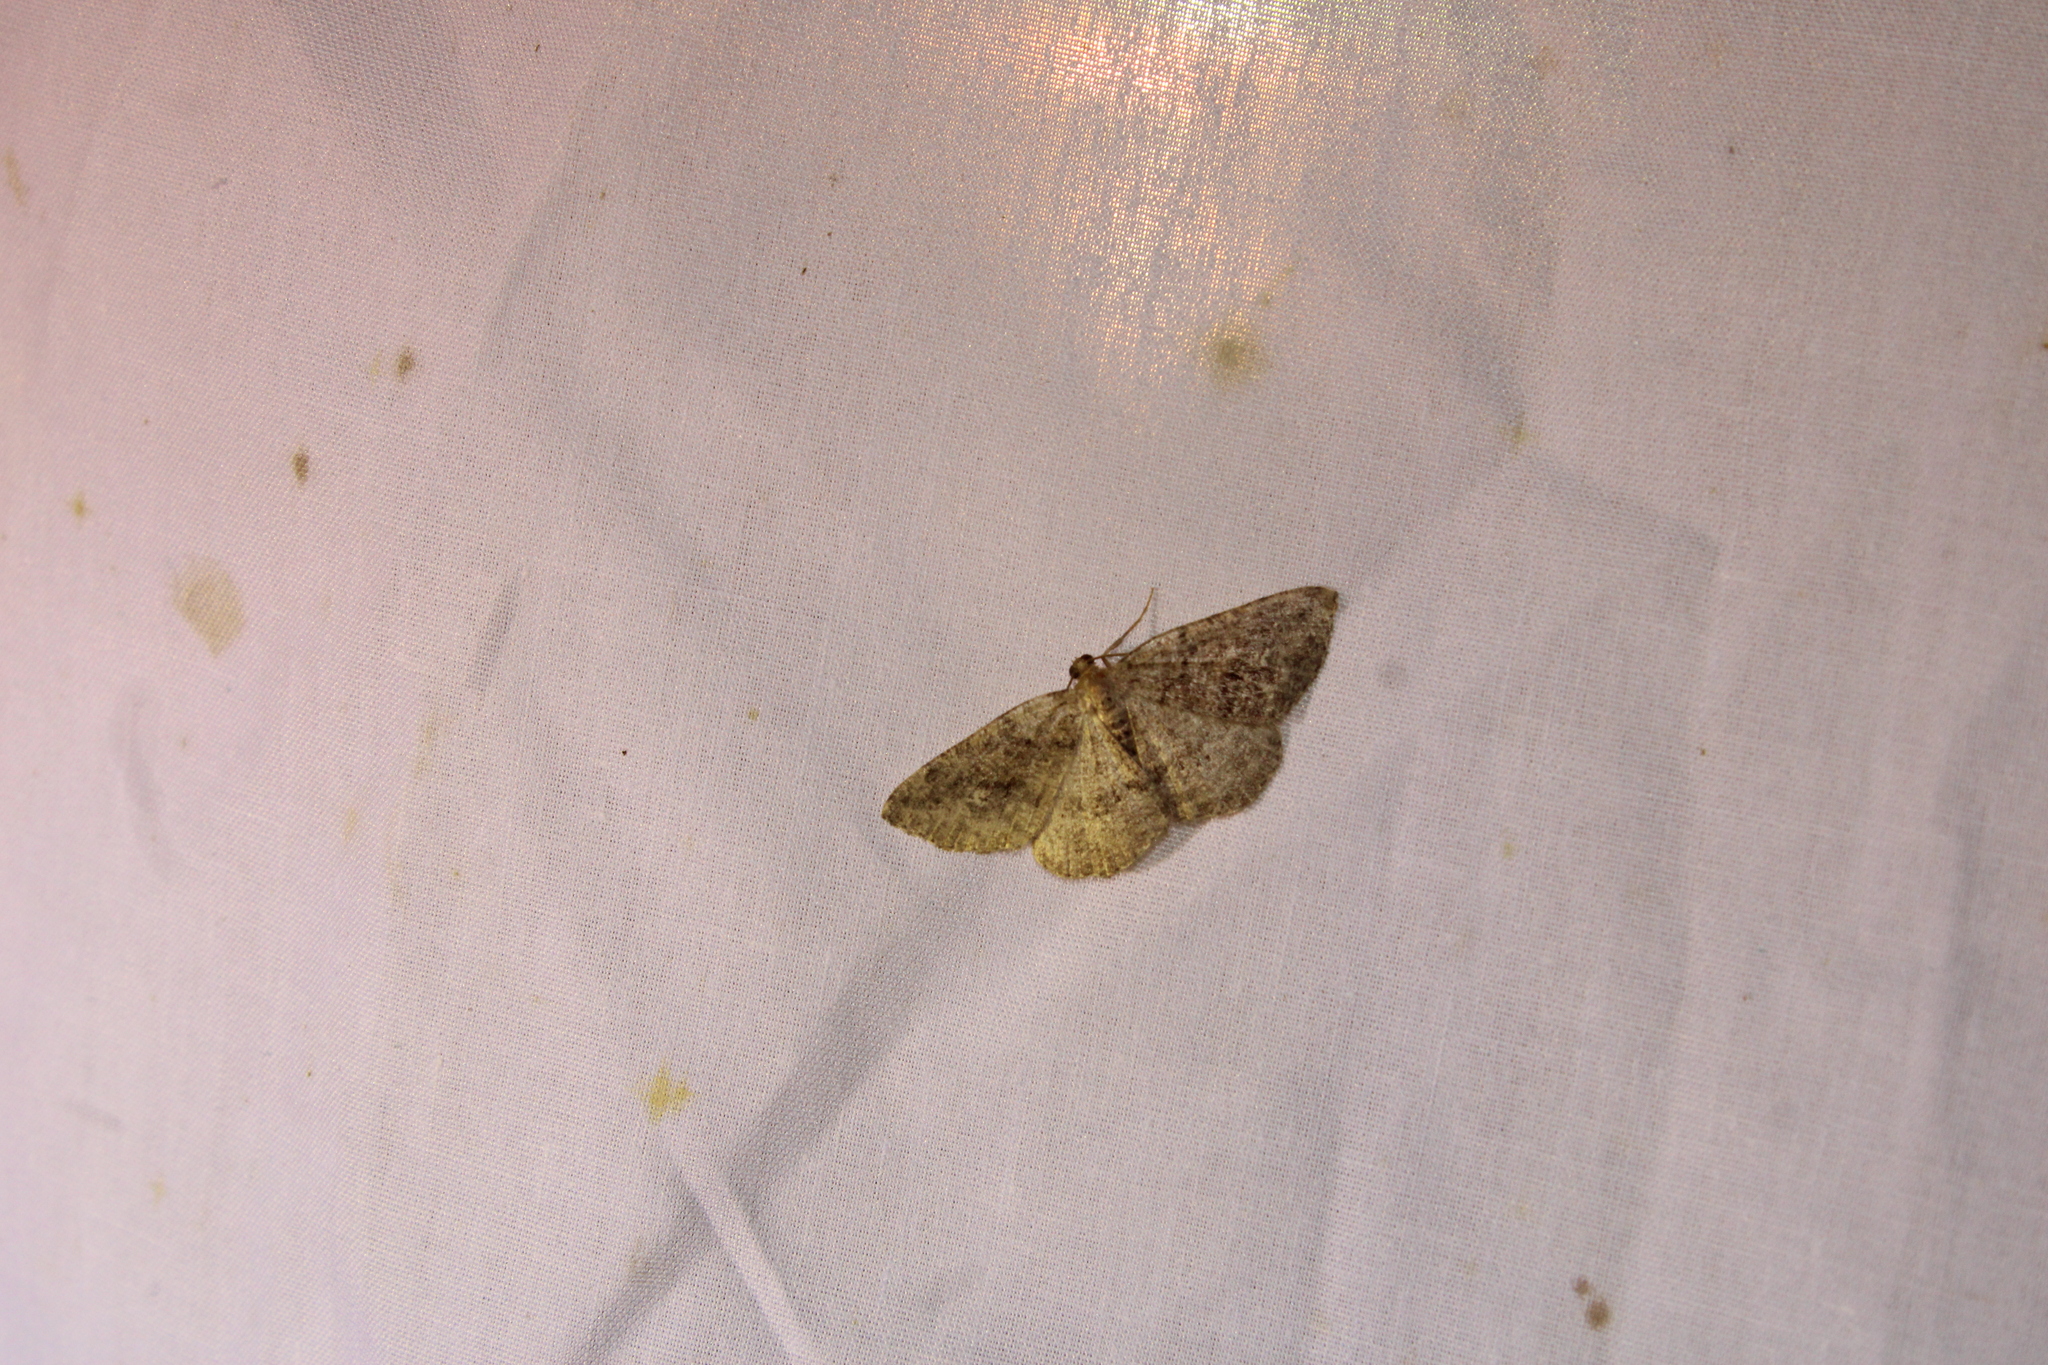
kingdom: Animalia
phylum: Arthropoda
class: Insecta
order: Lepidoptera
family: Geometridae
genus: Homochlodes
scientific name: Homochlodes fritillaria
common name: Pale homochlodes
